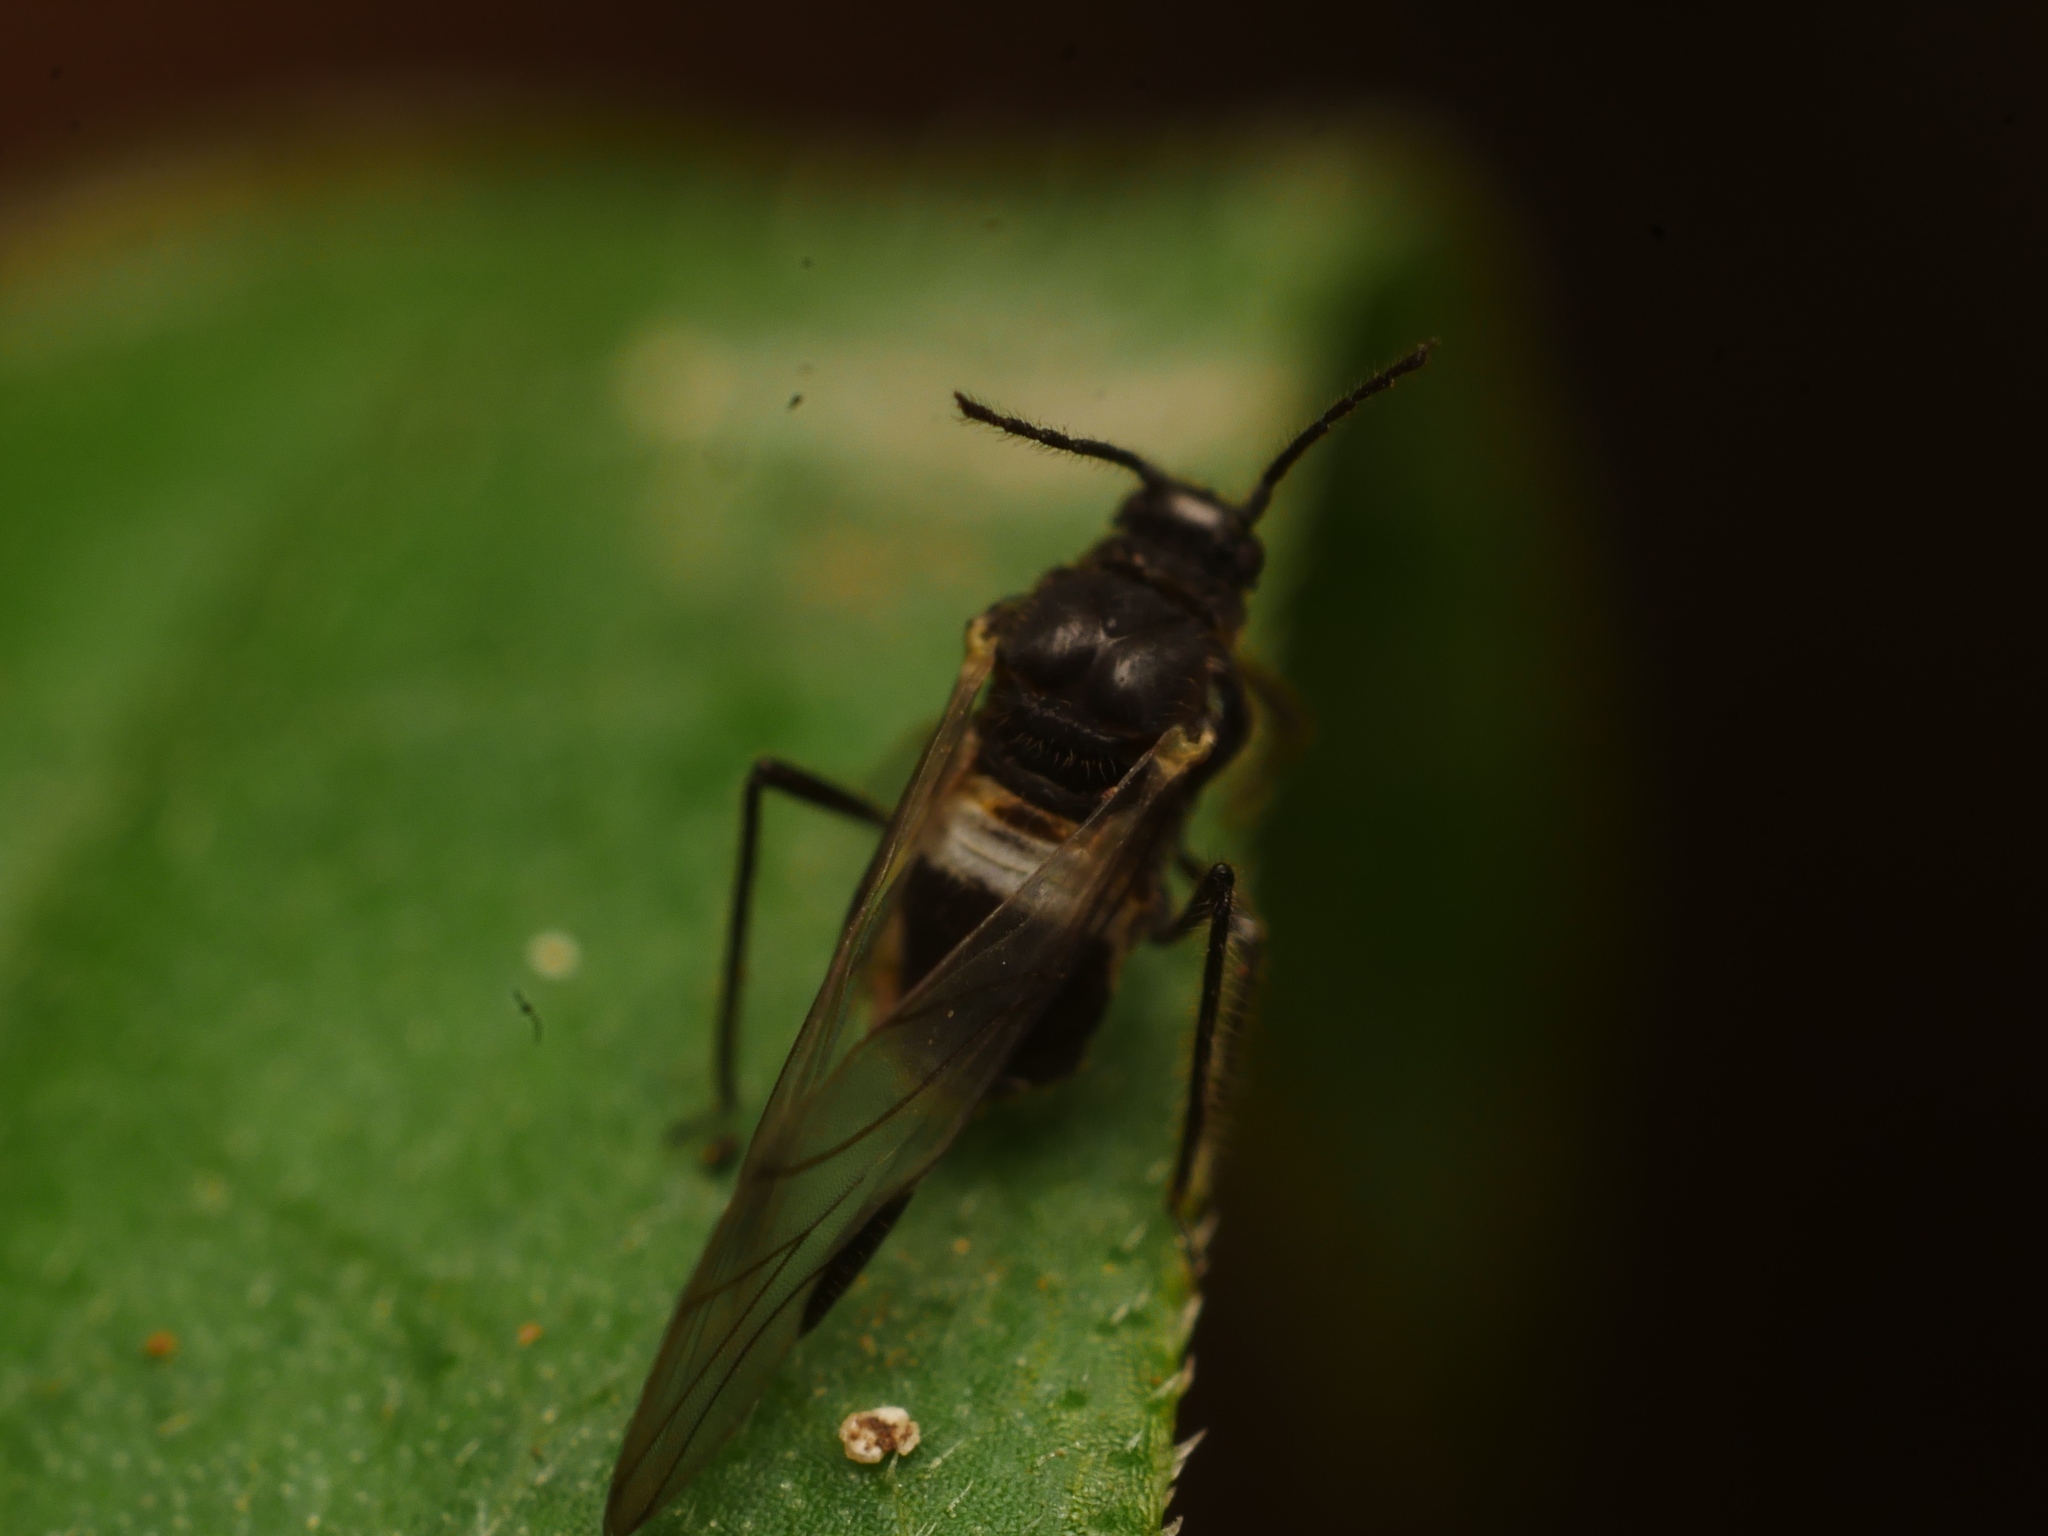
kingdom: Animalia
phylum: Arthropoda
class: Insecta
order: Hemiptera
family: Aphididae
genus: Anoecia
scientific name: Anoecia
